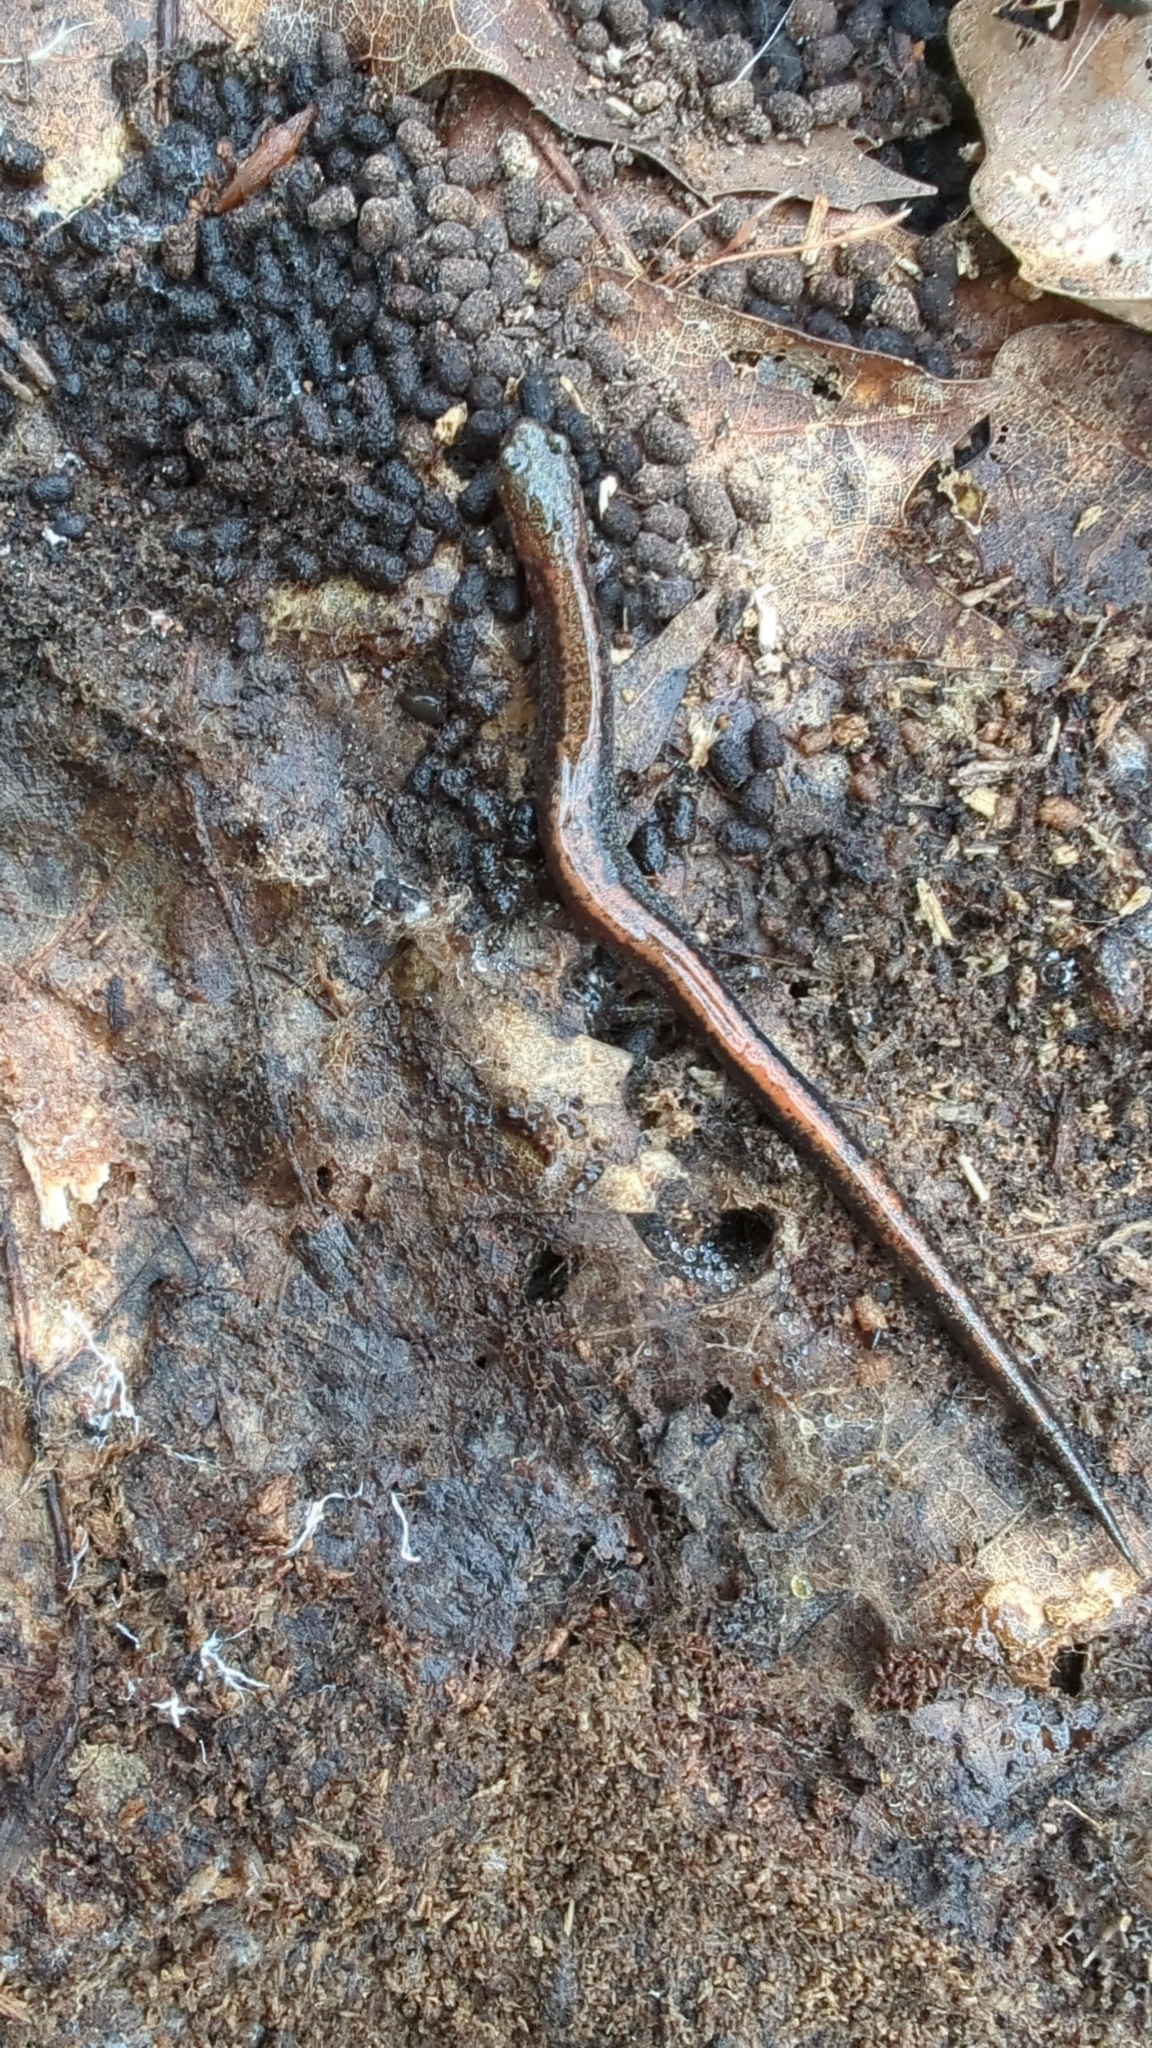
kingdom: Animalia
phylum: Chordata
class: Amphibia
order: Caudata
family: Plethodontidae
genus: Plethodon
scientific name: Plethodon cinereus
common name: Redback salamander
